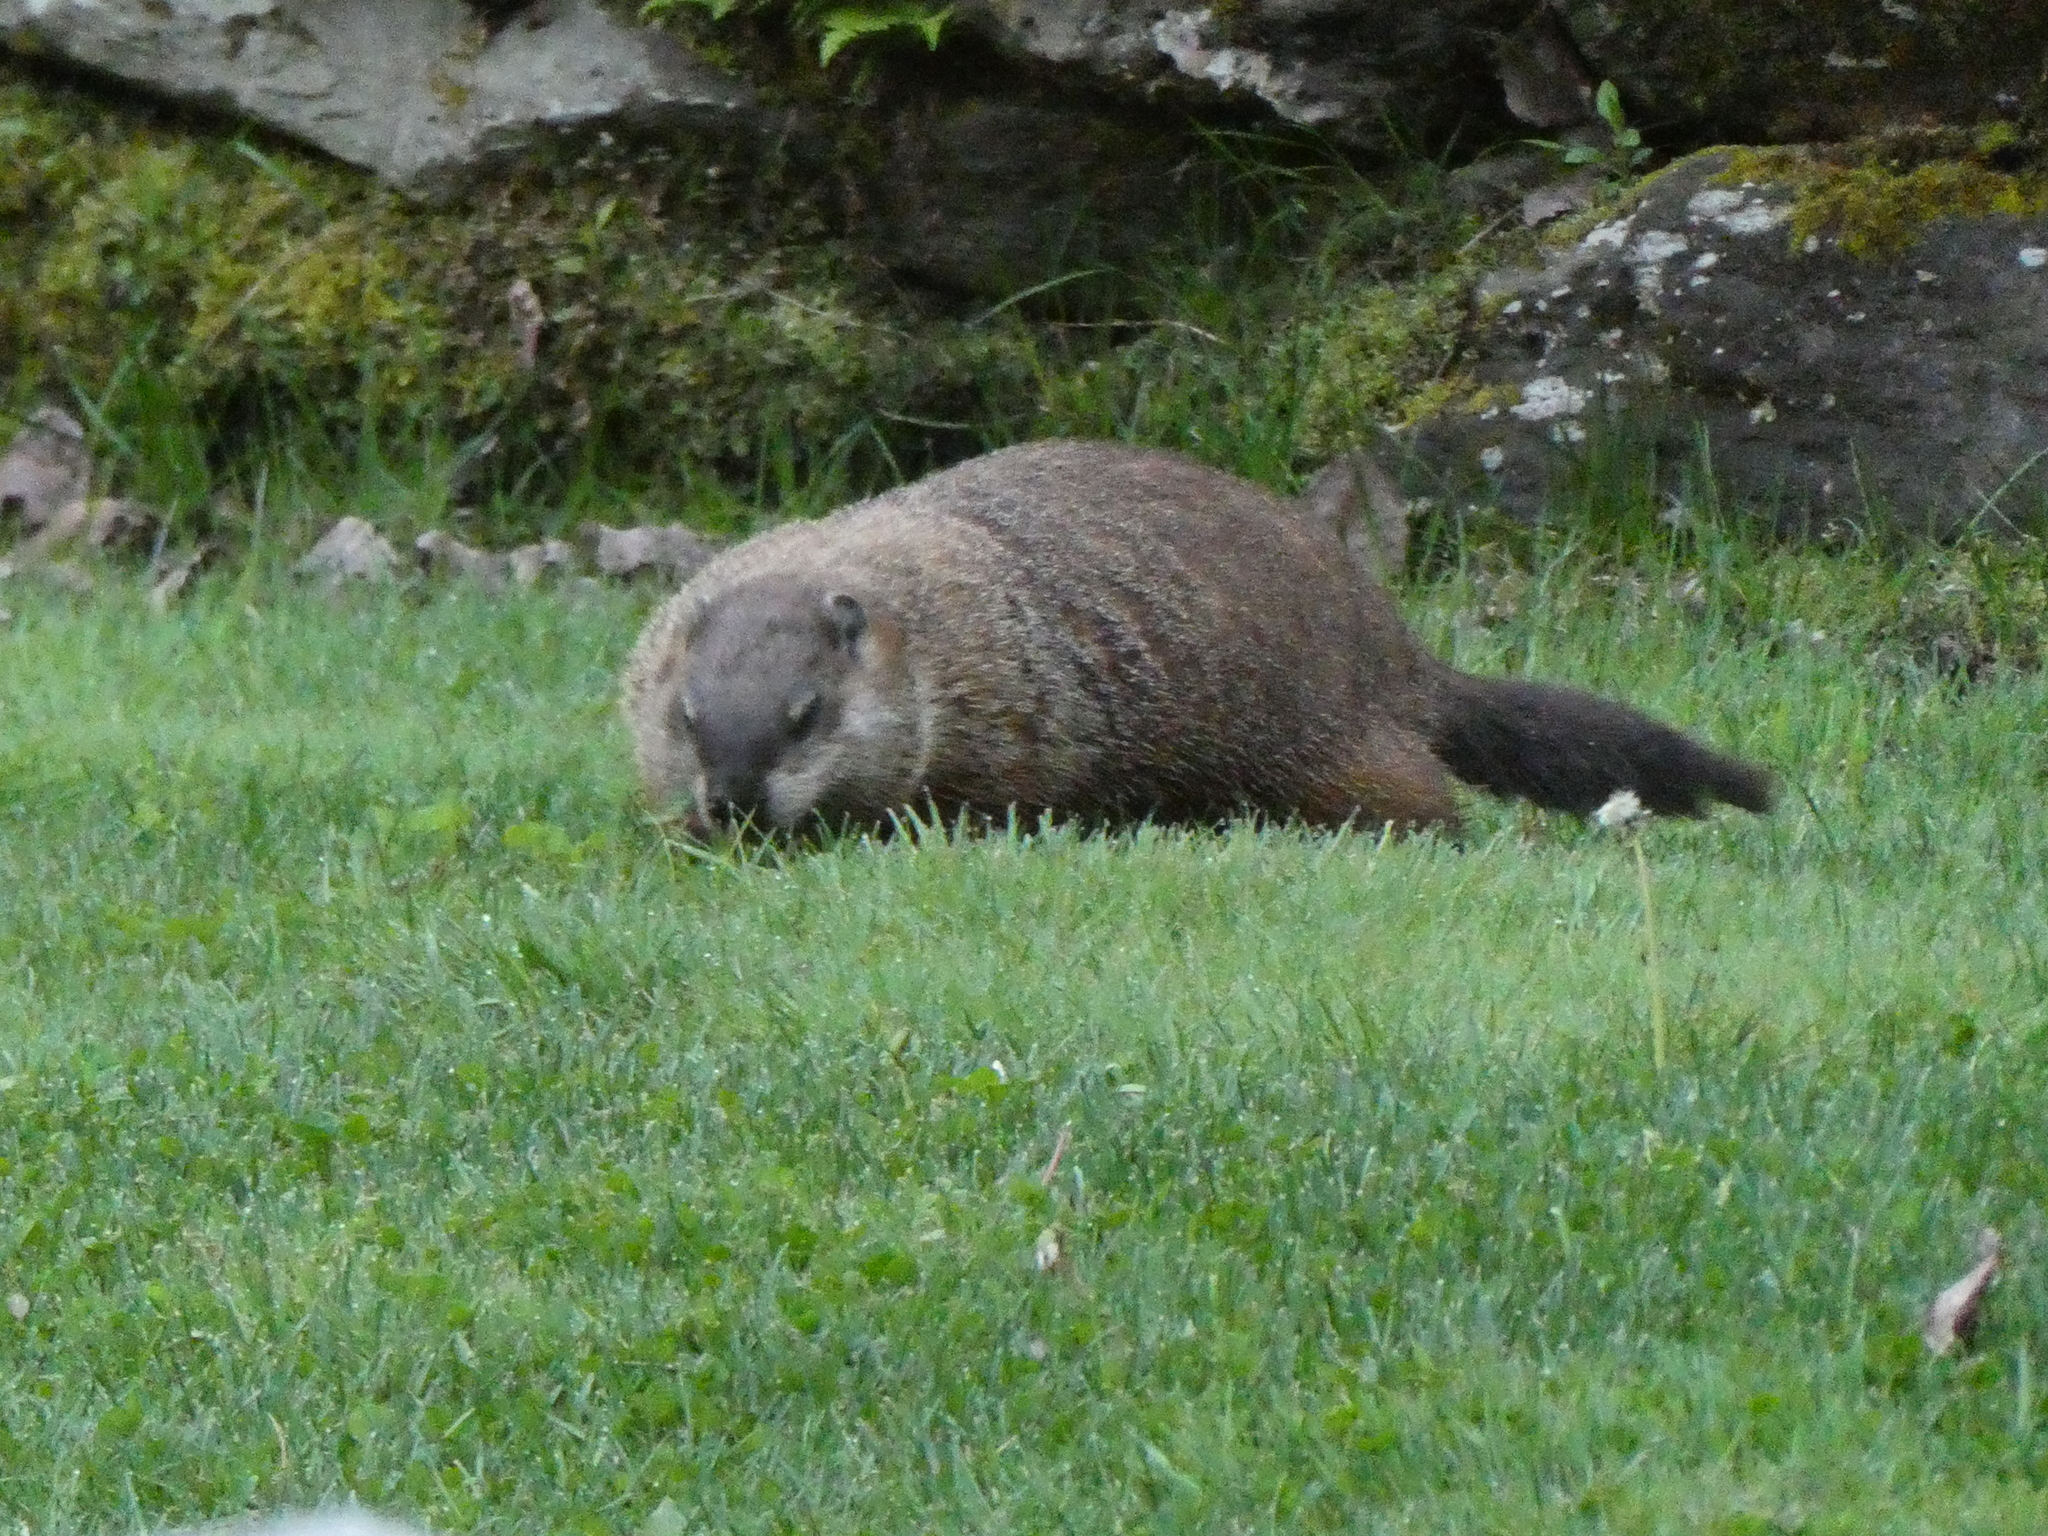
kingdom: Animalia
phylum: Chordata
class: Mammalia
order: Rodentia
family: Sciuridae
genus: Marmota
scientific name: Marmota monax
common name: Groundhog
